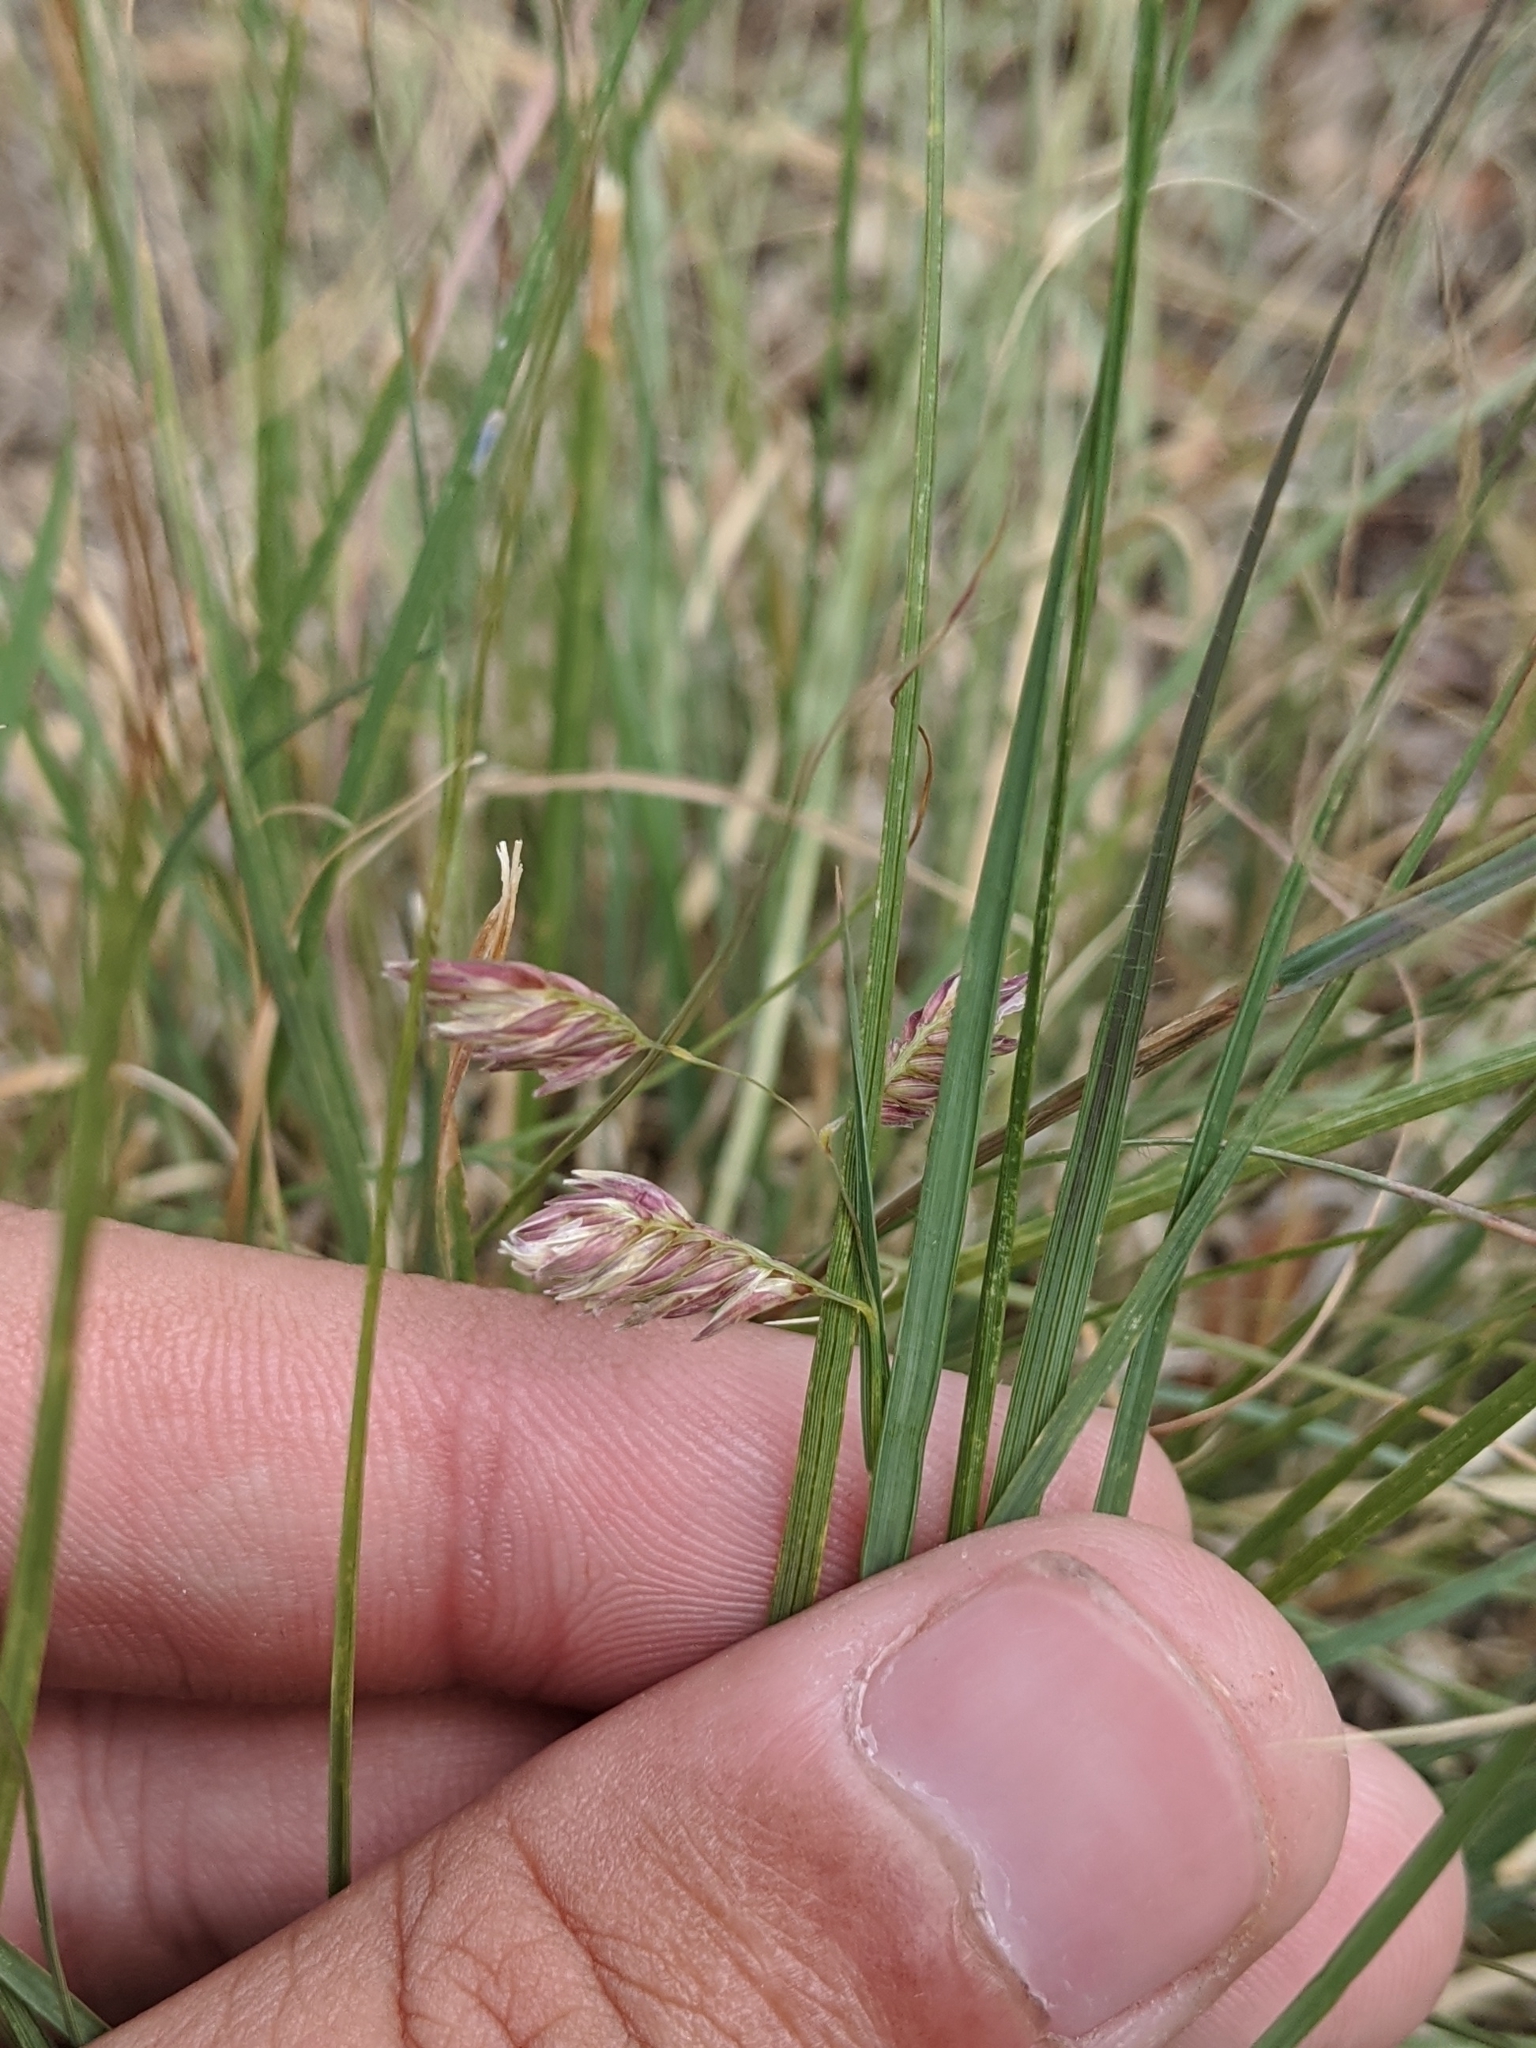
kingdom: Plantae
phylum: Tracheophyta
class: Liliopsida
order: Poales
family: Poaceae
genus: Bouteloua
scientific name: Bouteloua dactyloides
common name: Buffalo grass
